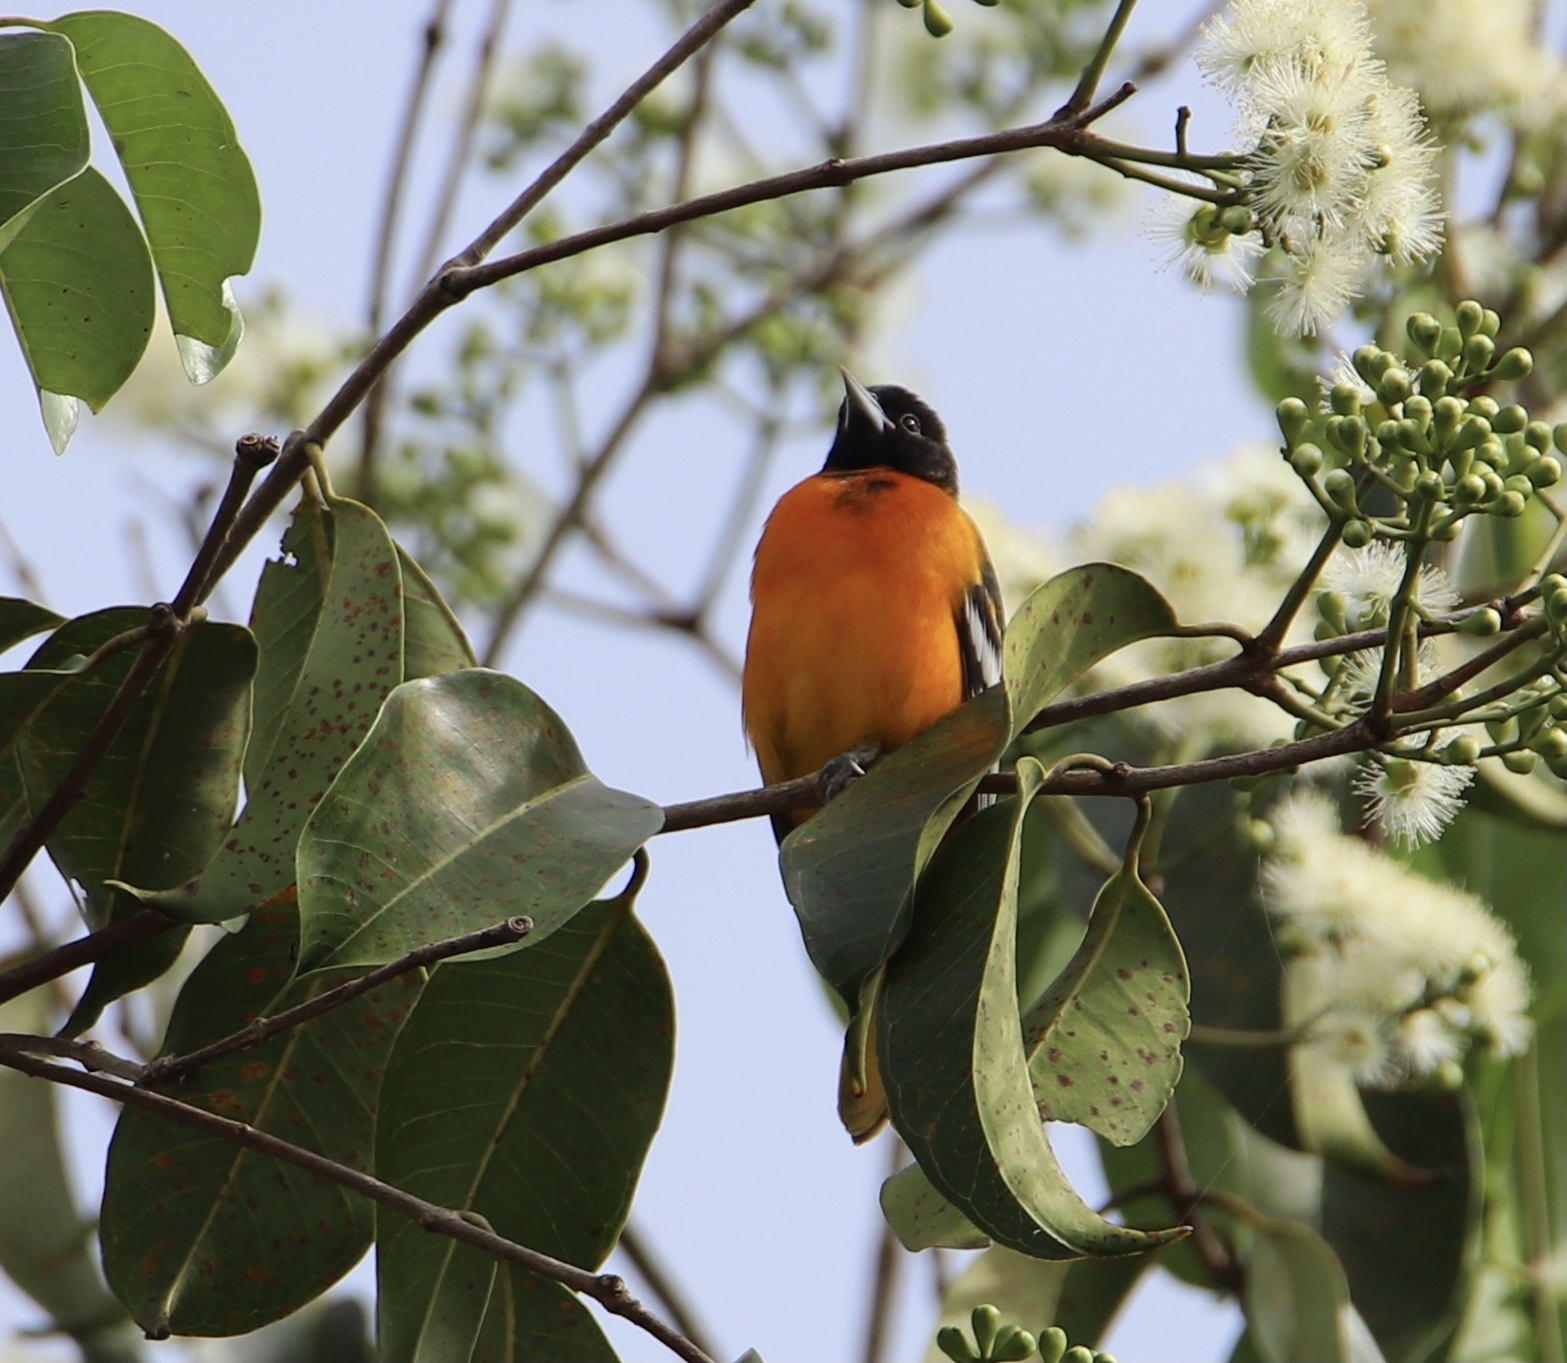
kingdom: Animalia
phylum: Chordata
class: Aves
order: Passeriformes
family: Icteridae
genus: Icterus
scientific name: Icterus galbula
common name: Baltimore oriole
